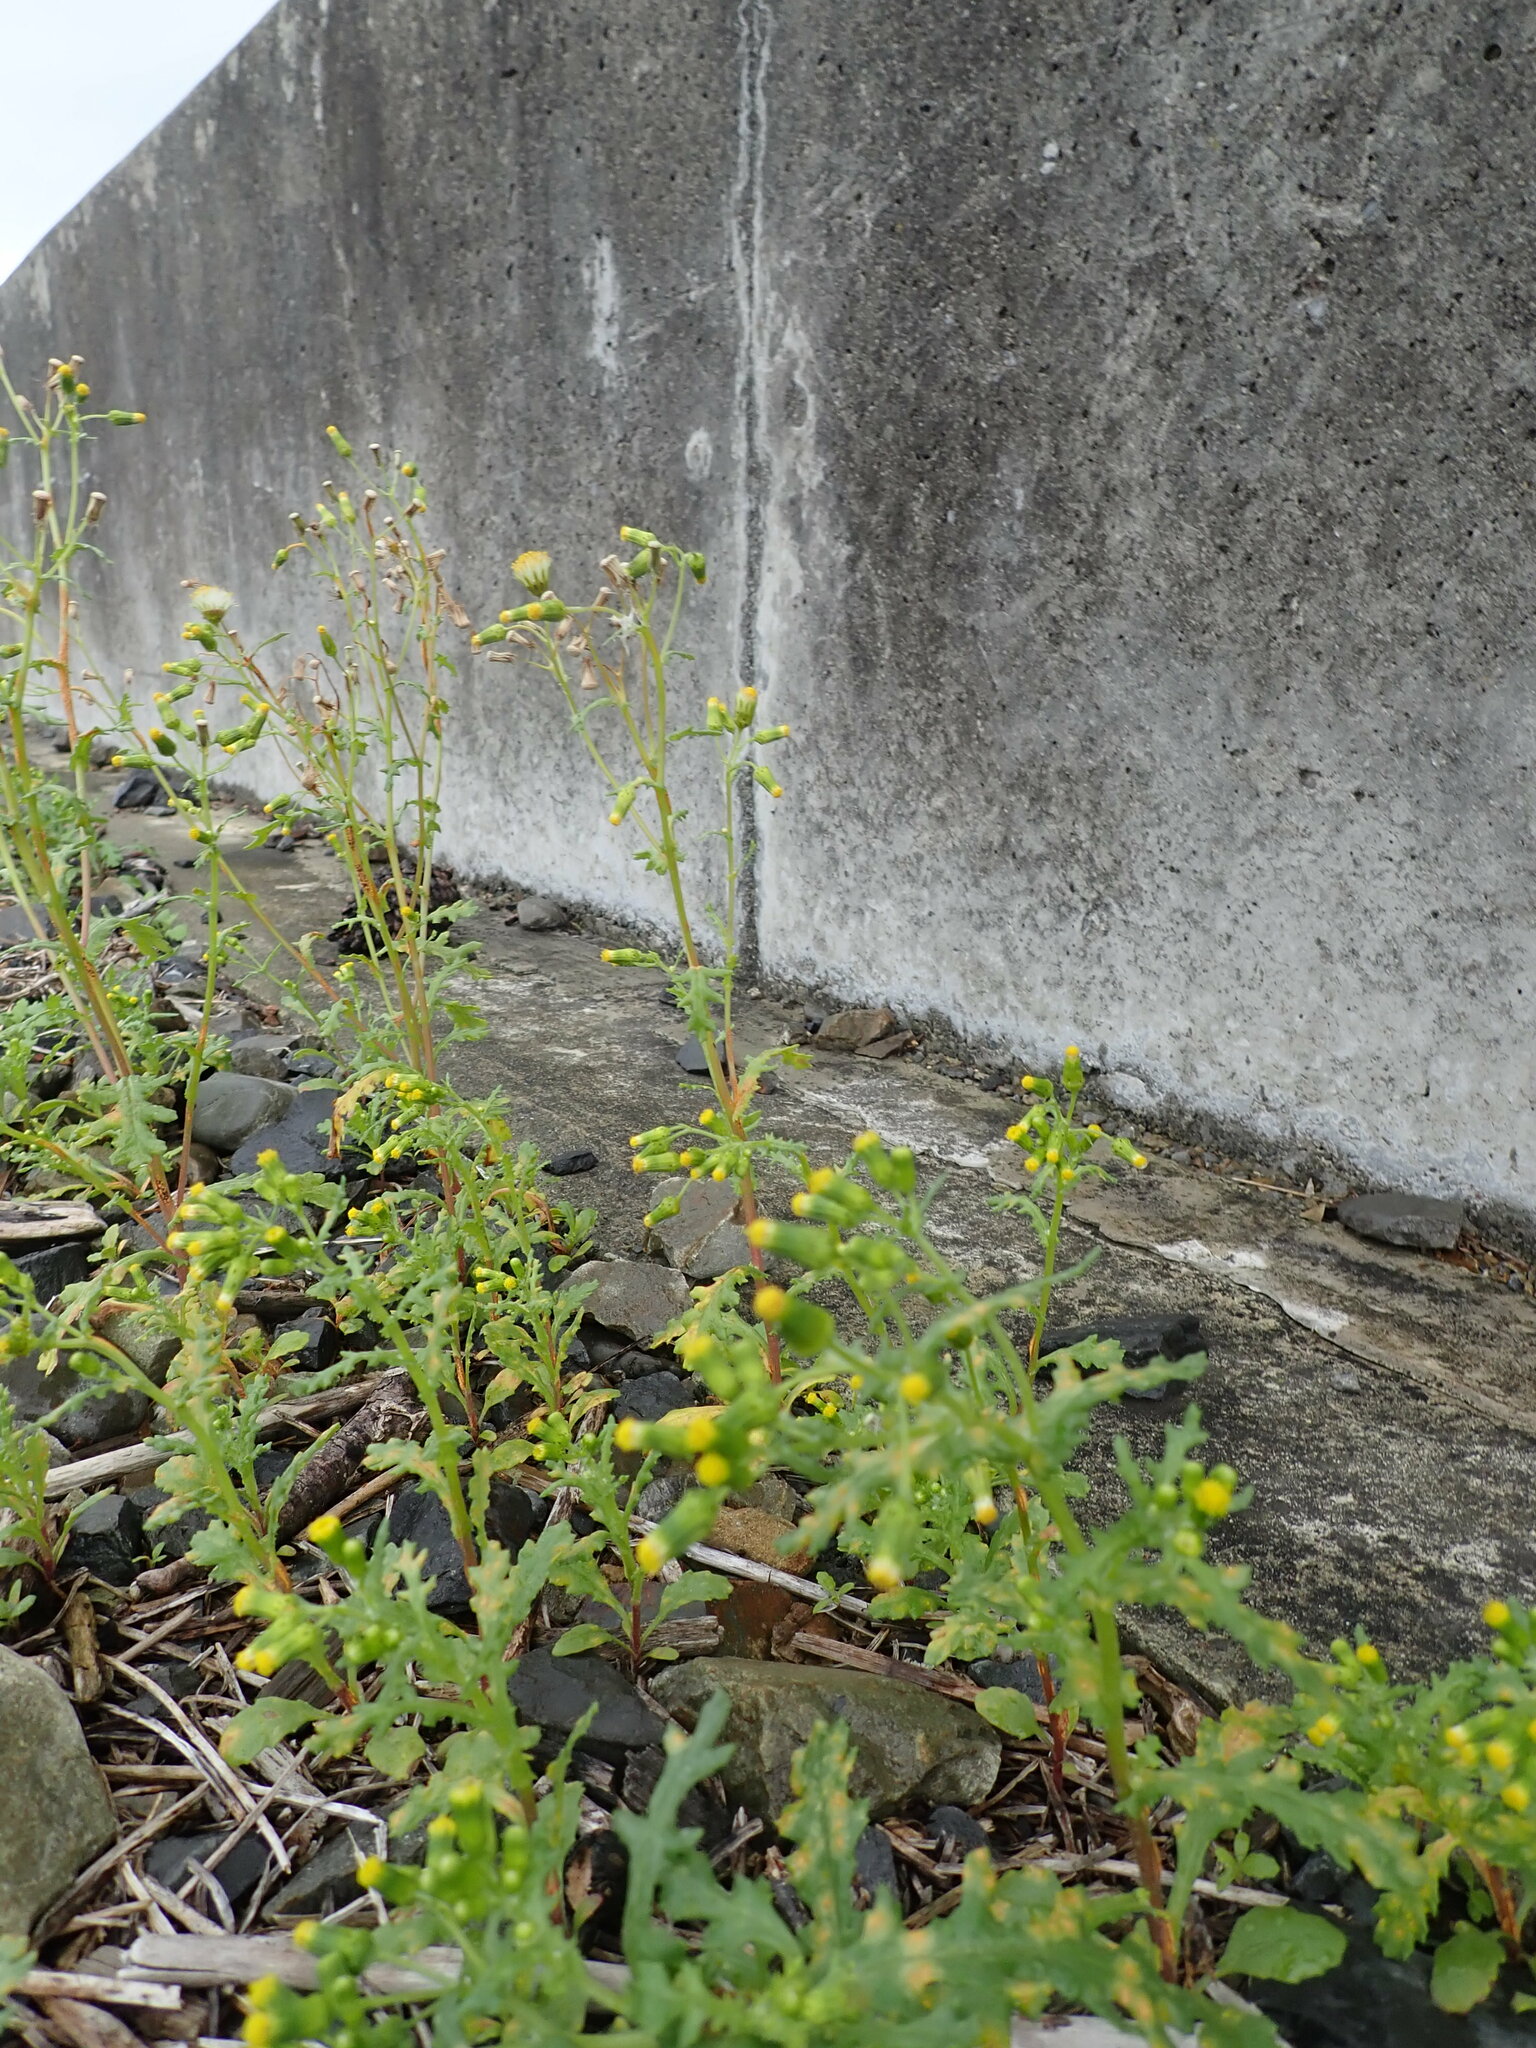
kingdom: Plantae
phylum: Tracheophyta
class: Magnoliopsida
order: Asterales
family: Asteraceae
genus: Jacobaea
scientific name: Jacobaea vulgaris
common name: Stinking willie
